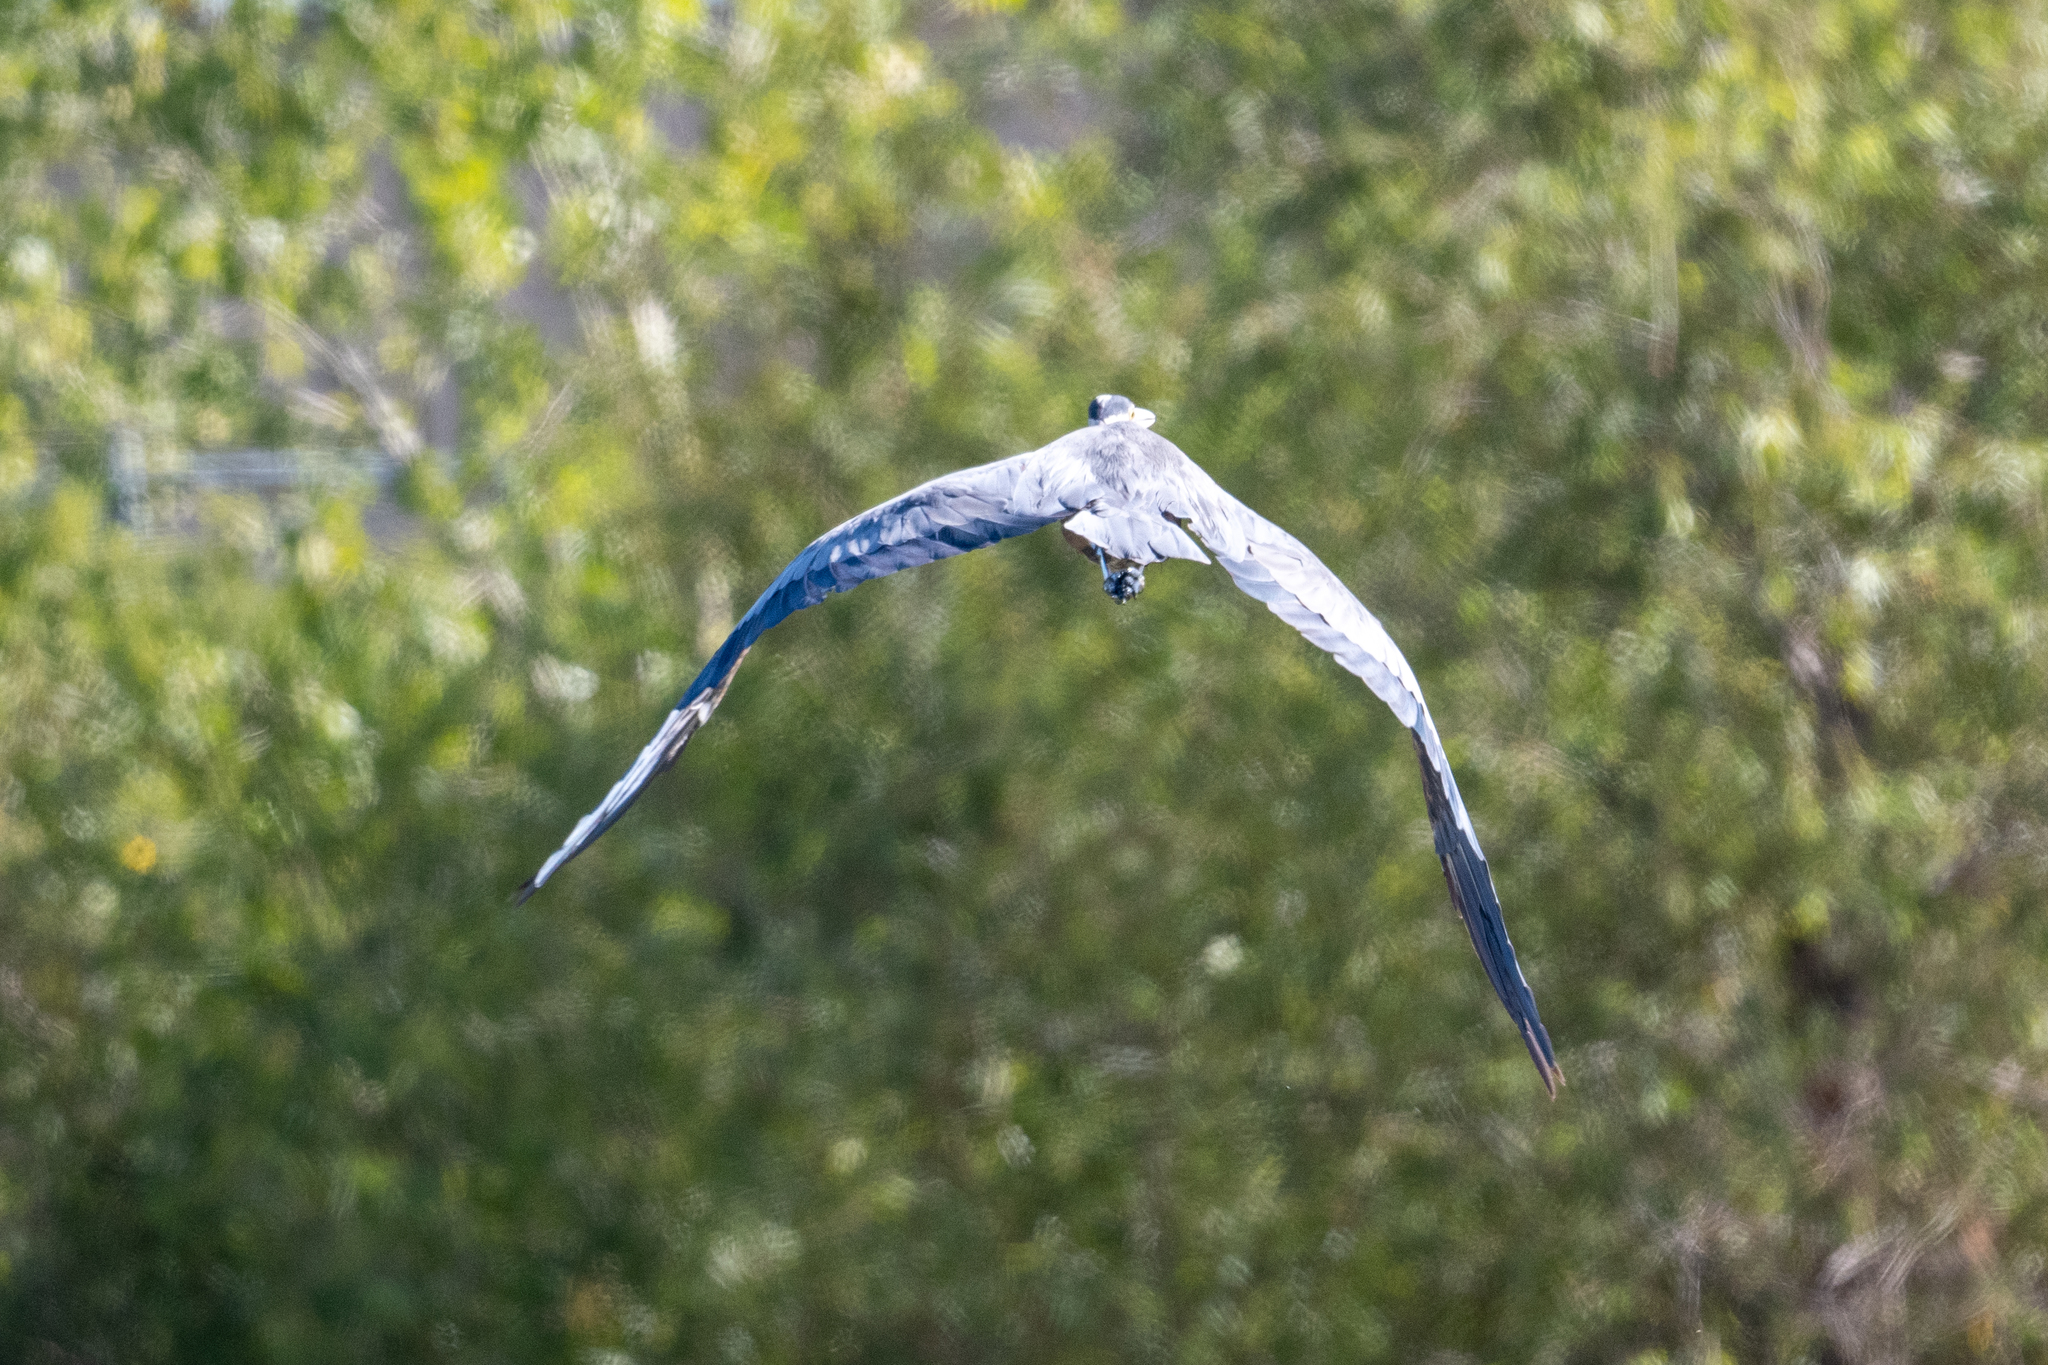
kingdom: Animalia
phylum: Chordata
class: Aves
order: Pelecaniformes
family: Ardeidae
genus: Ardea
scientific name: Ardea herodias
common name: Great blue heron
